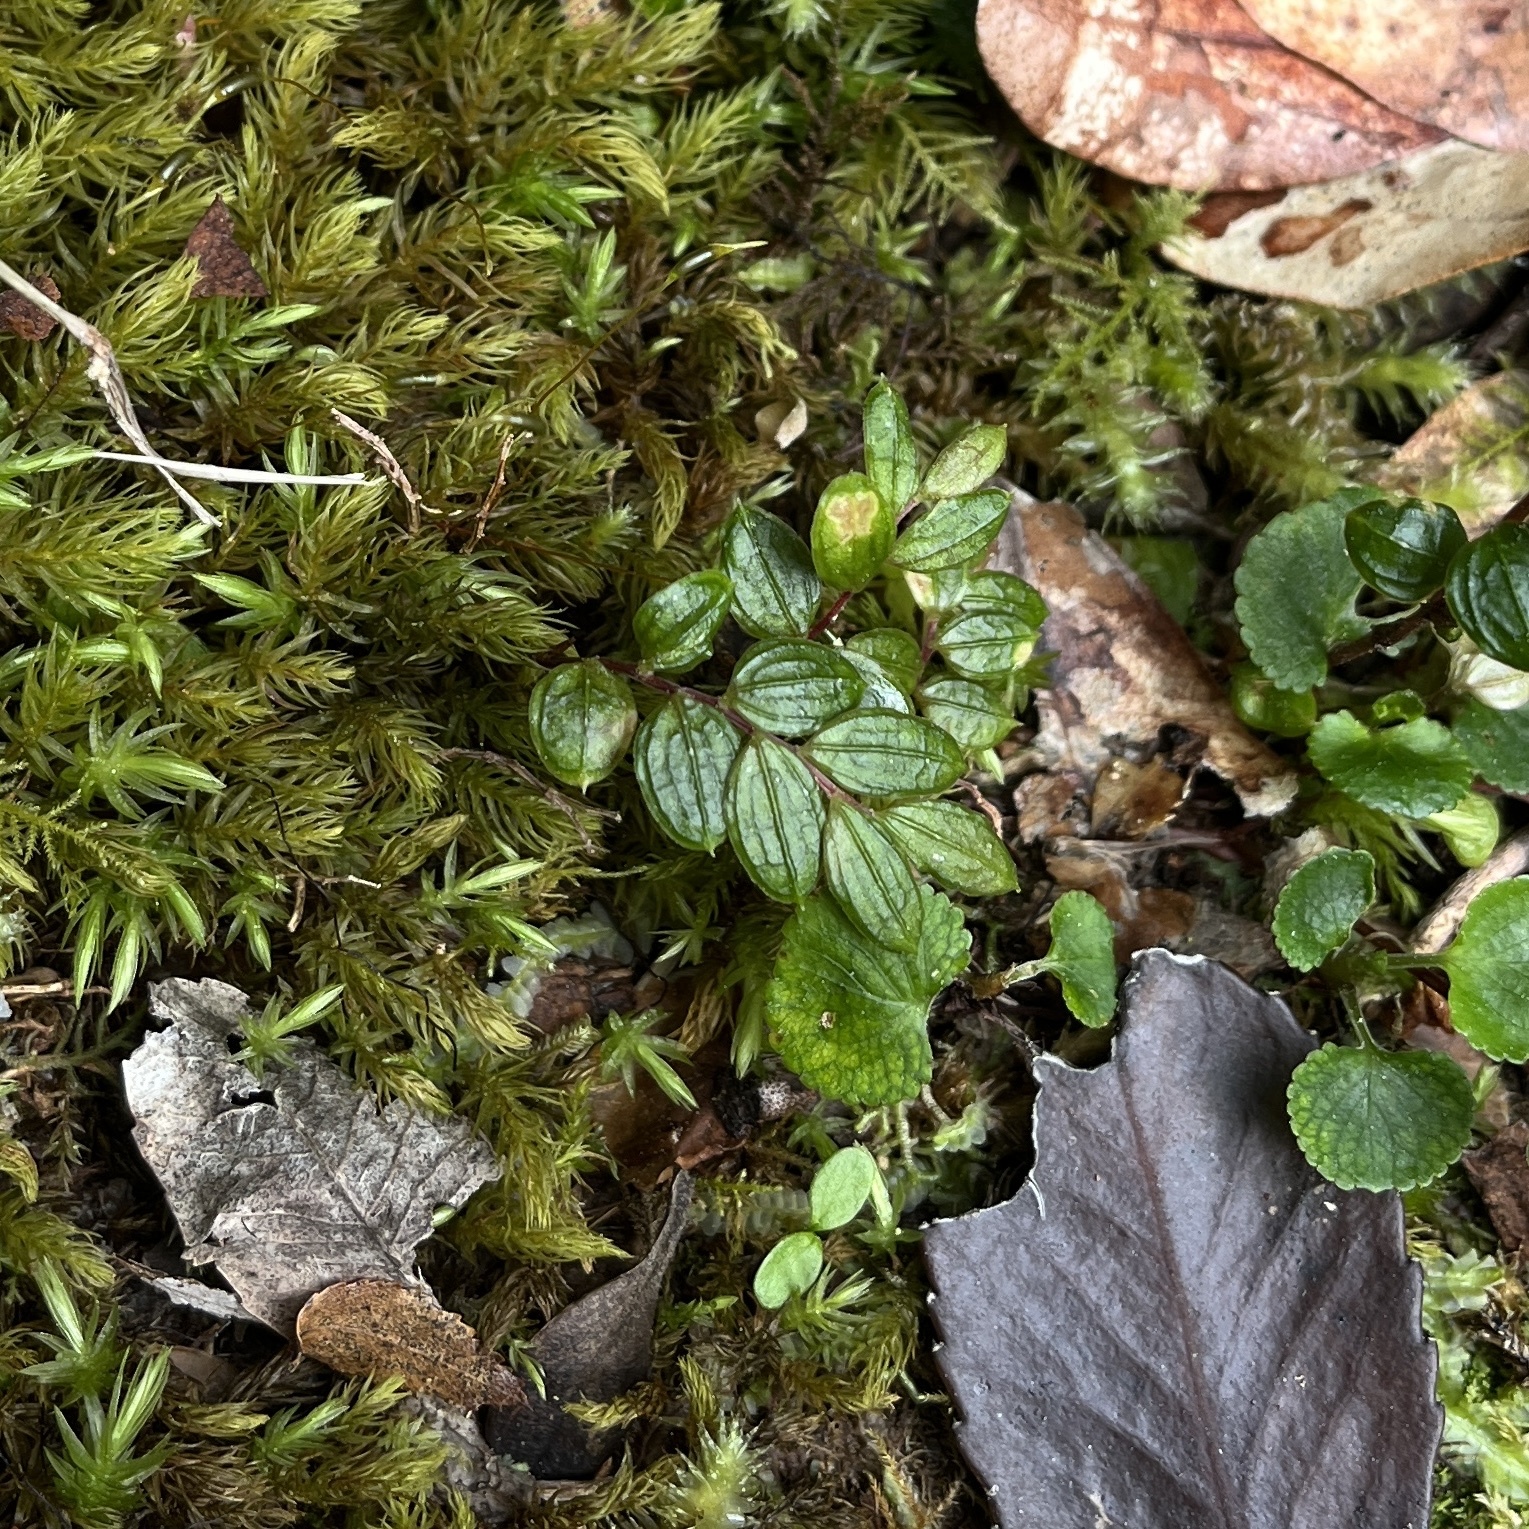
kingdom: Plantae
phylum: Tracheophyta
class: Liliopsida
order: Liliales
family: Alstroemeriaceae
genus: Luzuriaga
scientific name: Luzuriaga polyphylla
